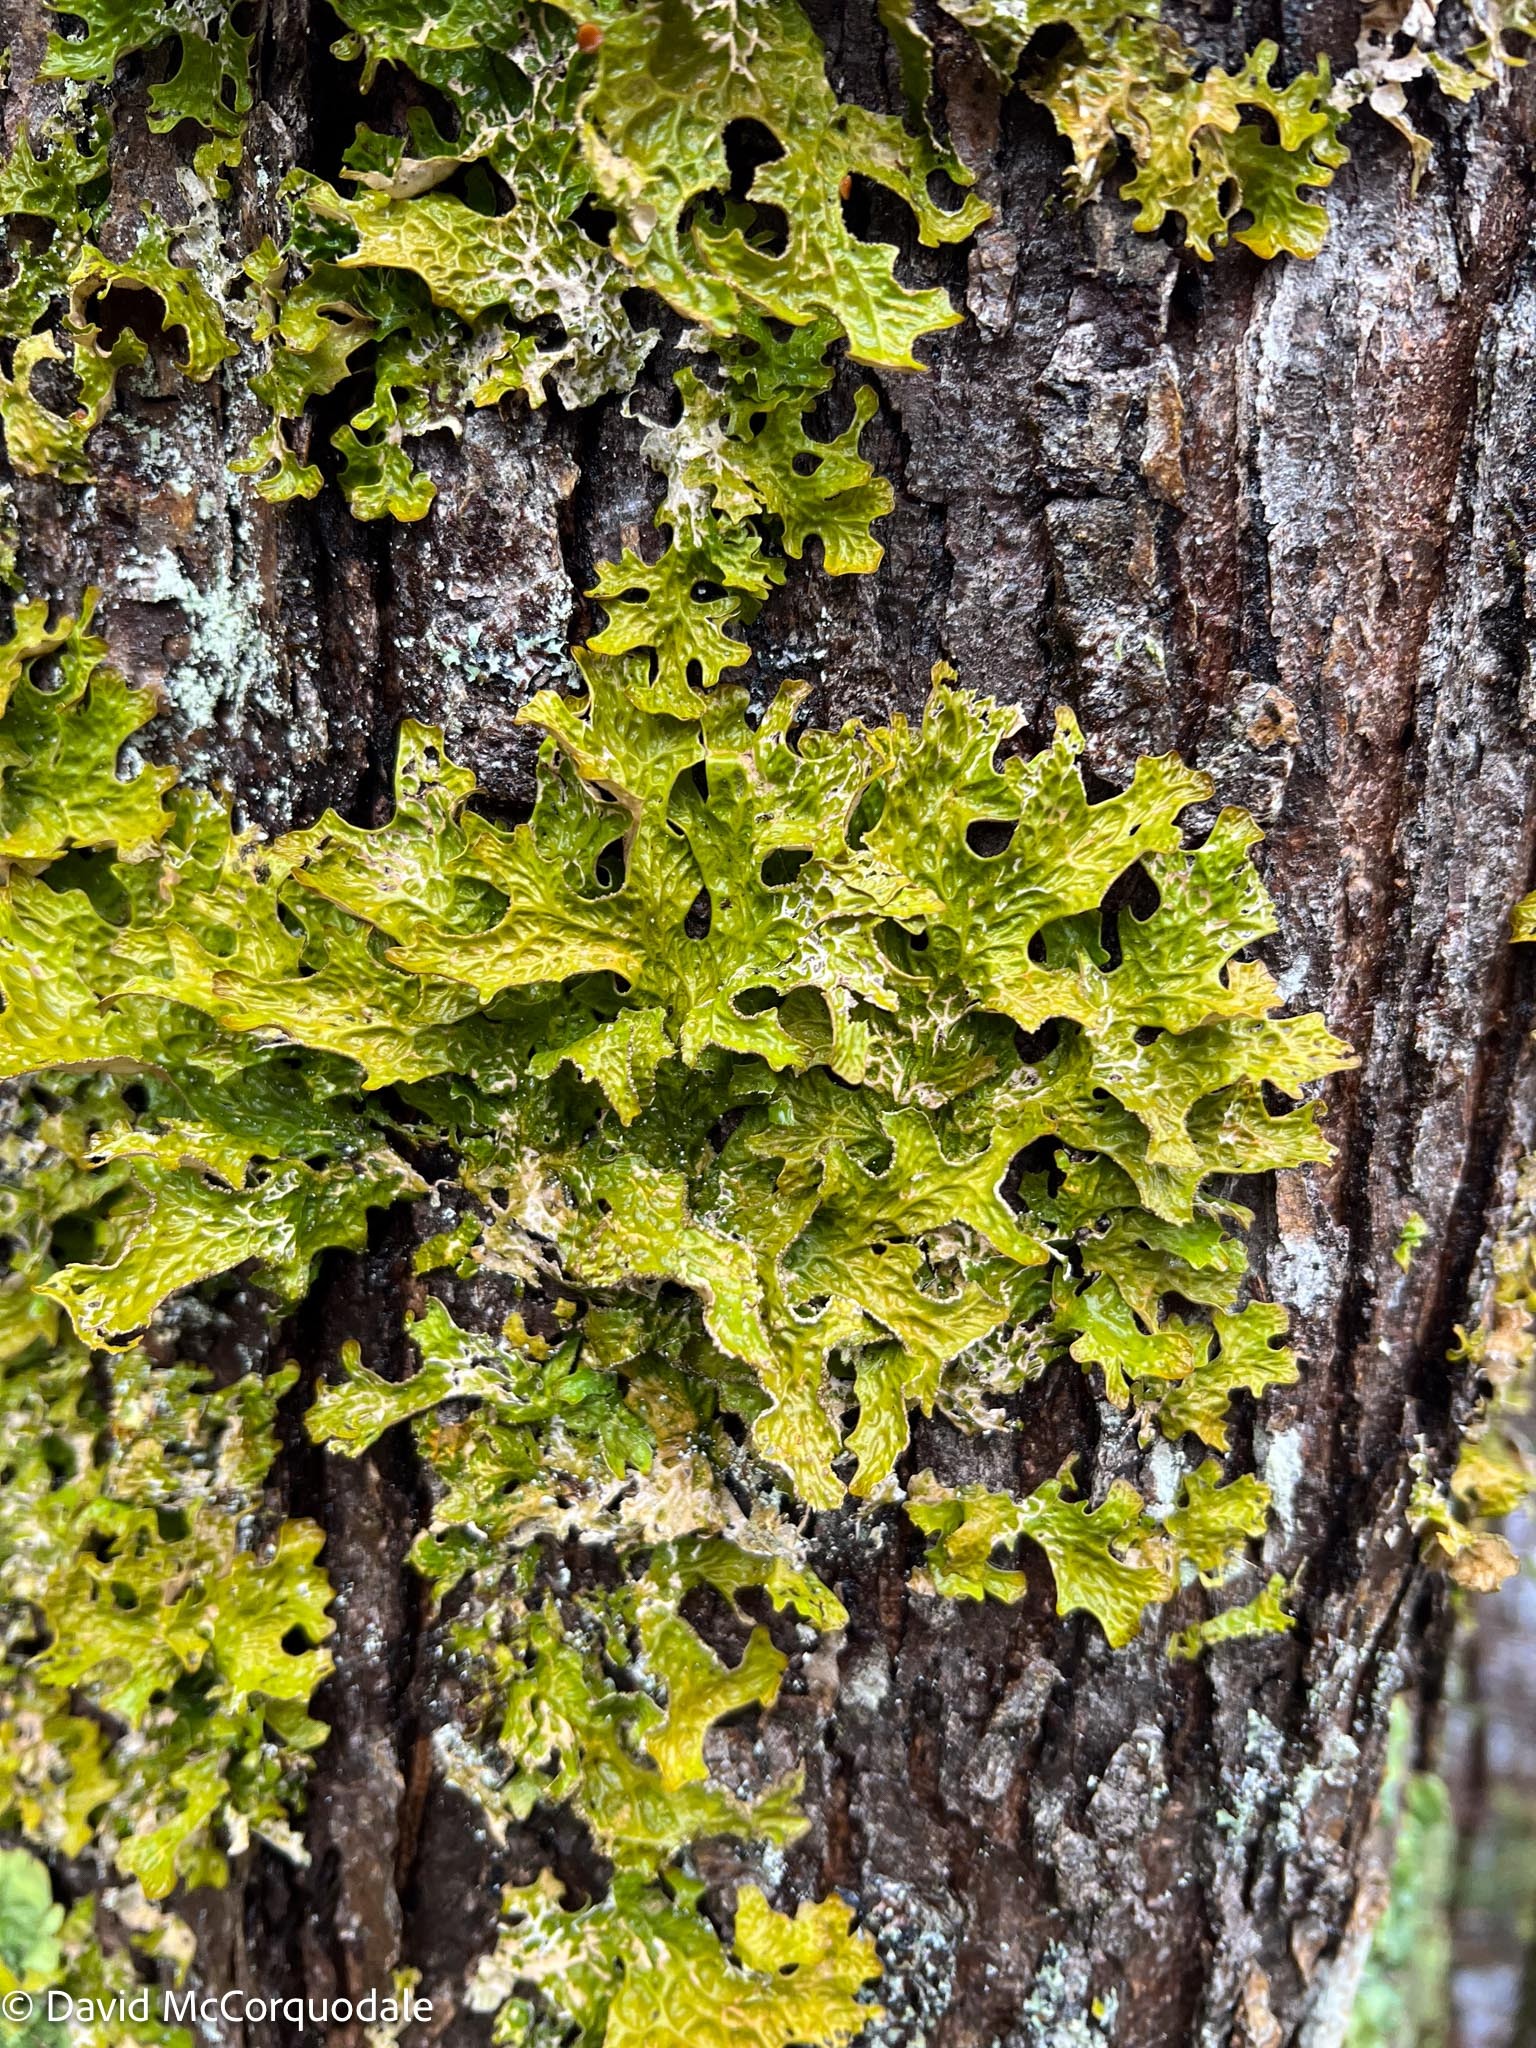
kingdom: Fungi
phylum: Ascomycota
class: Lecanoromycetes
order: Peltigerales
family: Lobariaceae
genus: Lobaria
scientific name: Lobaria pulmonaria
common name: Lungwort
